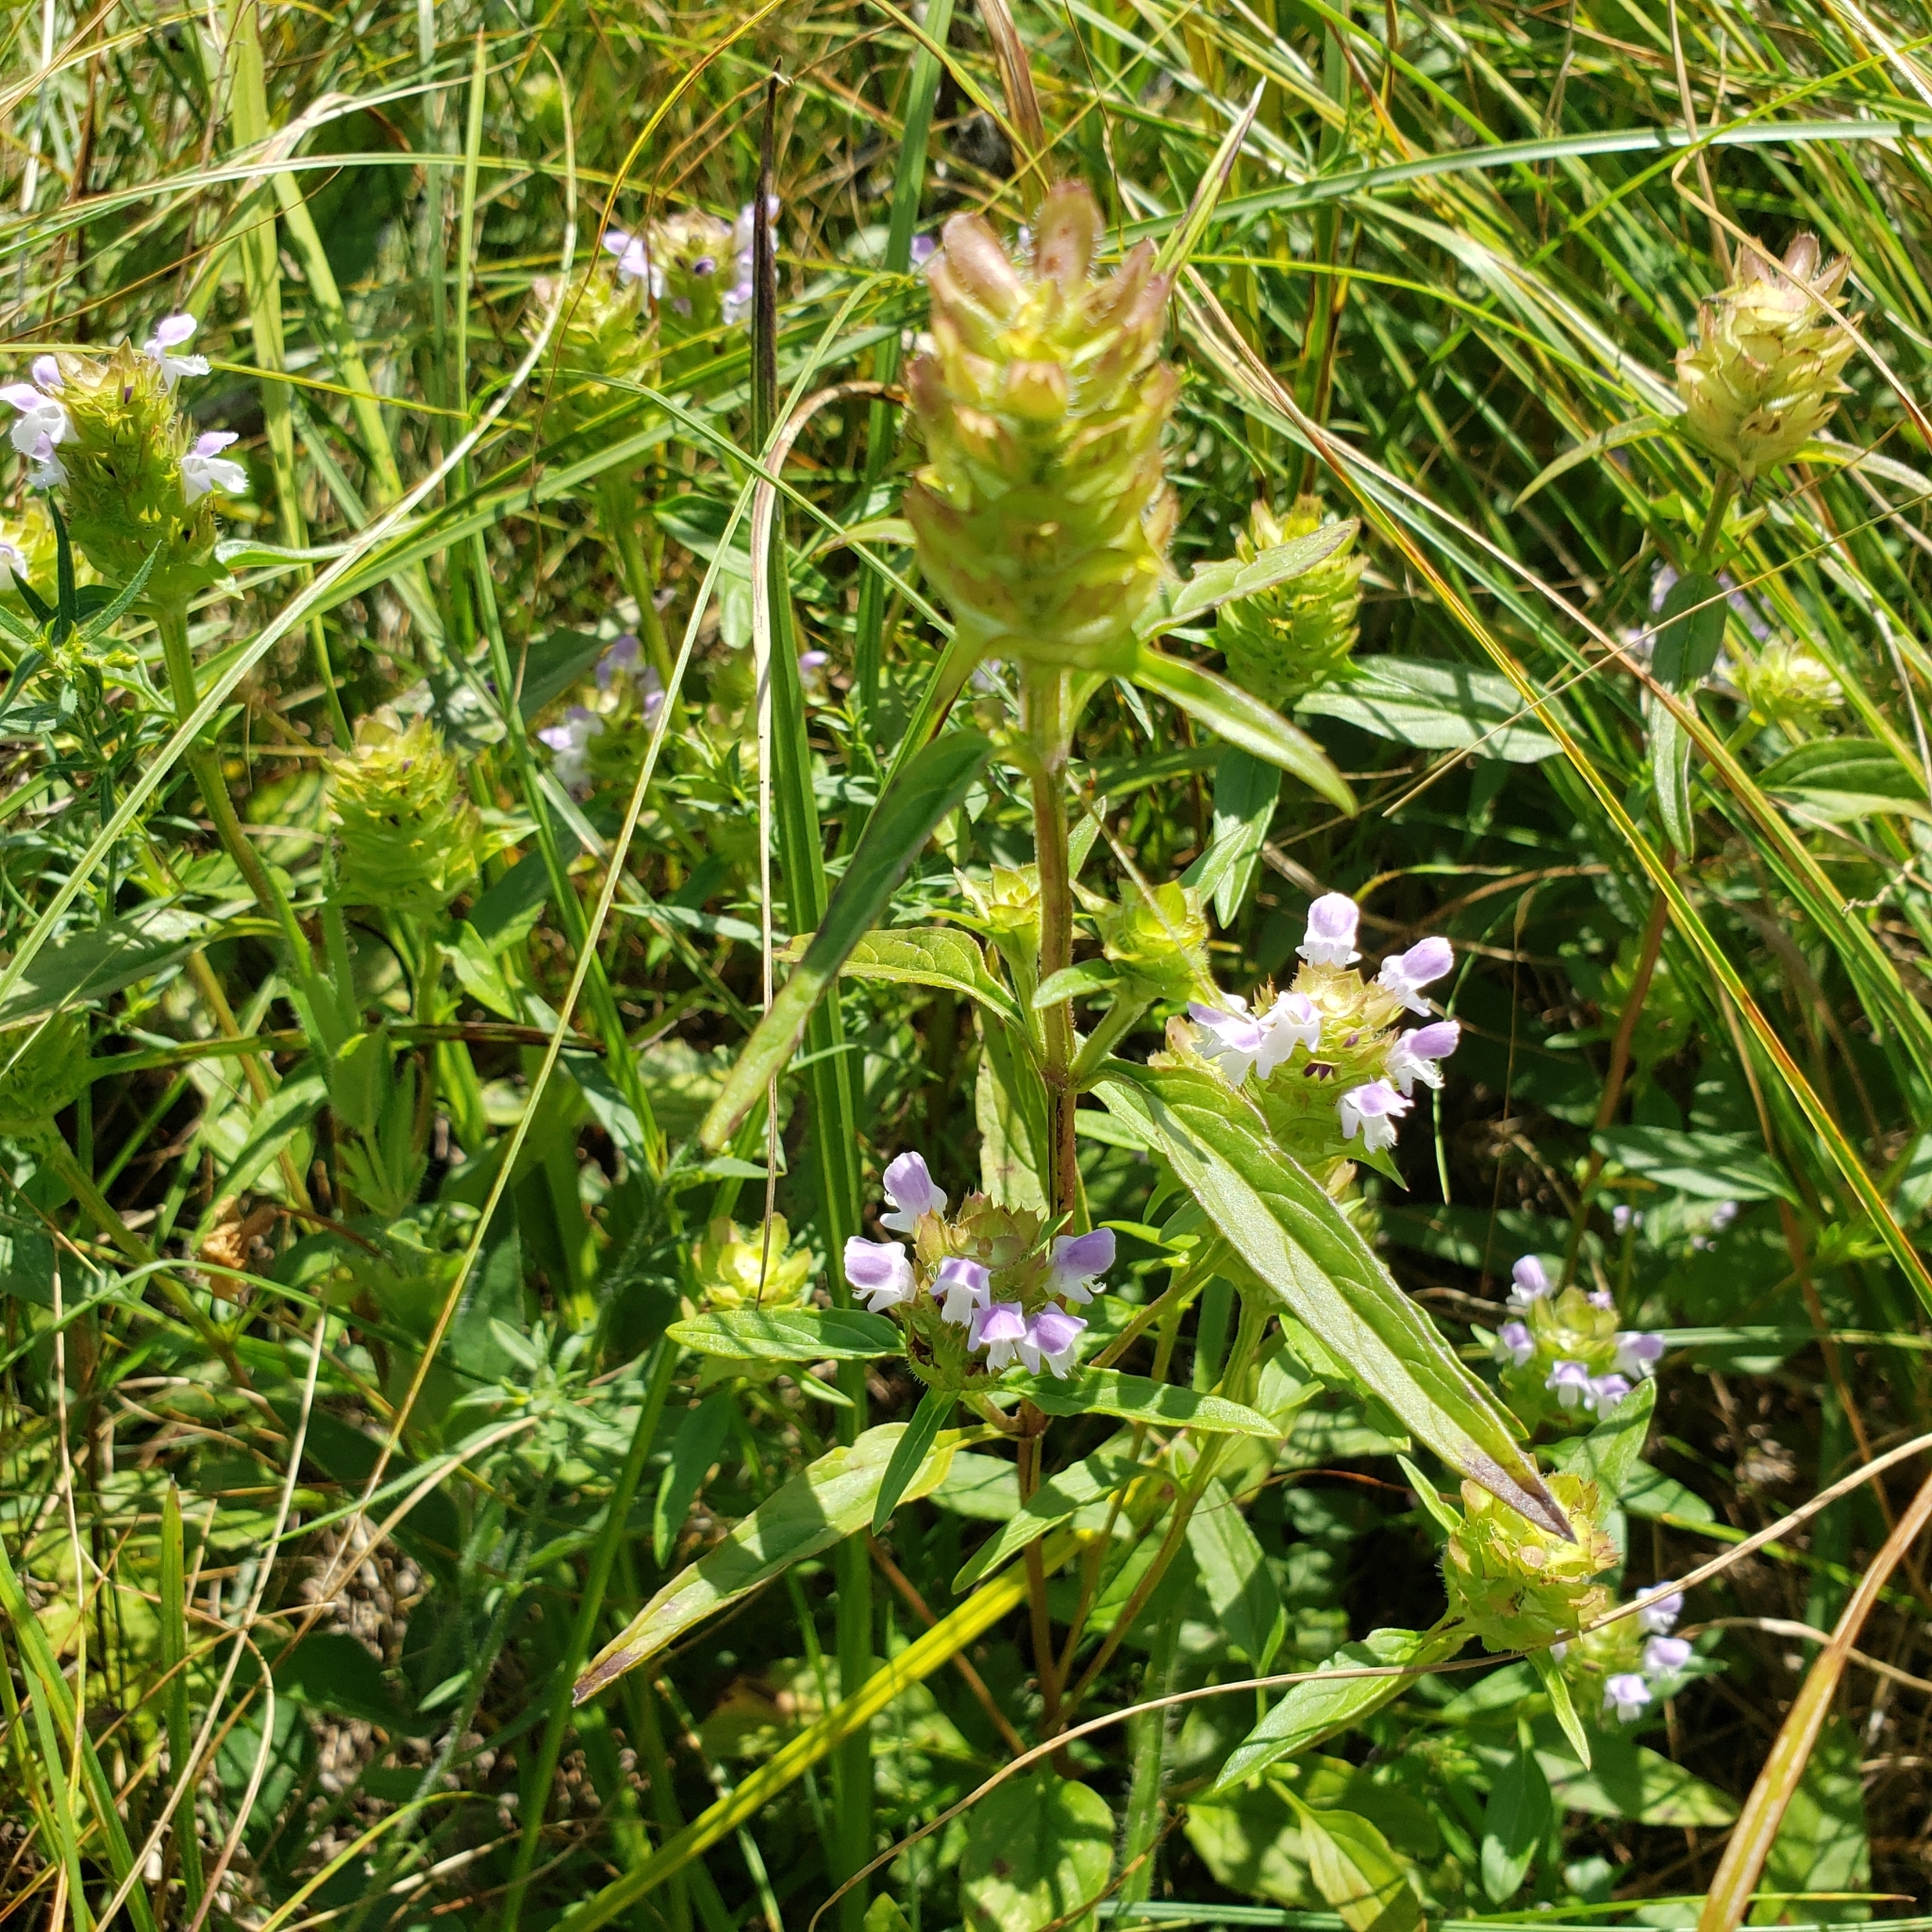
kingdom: Plantae
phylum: Tracheophyta
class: Magnoliopsida
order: Lamiales
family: Lamiaceae
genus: Prunella
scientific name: Prunella vulgaris
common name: Heal-all
